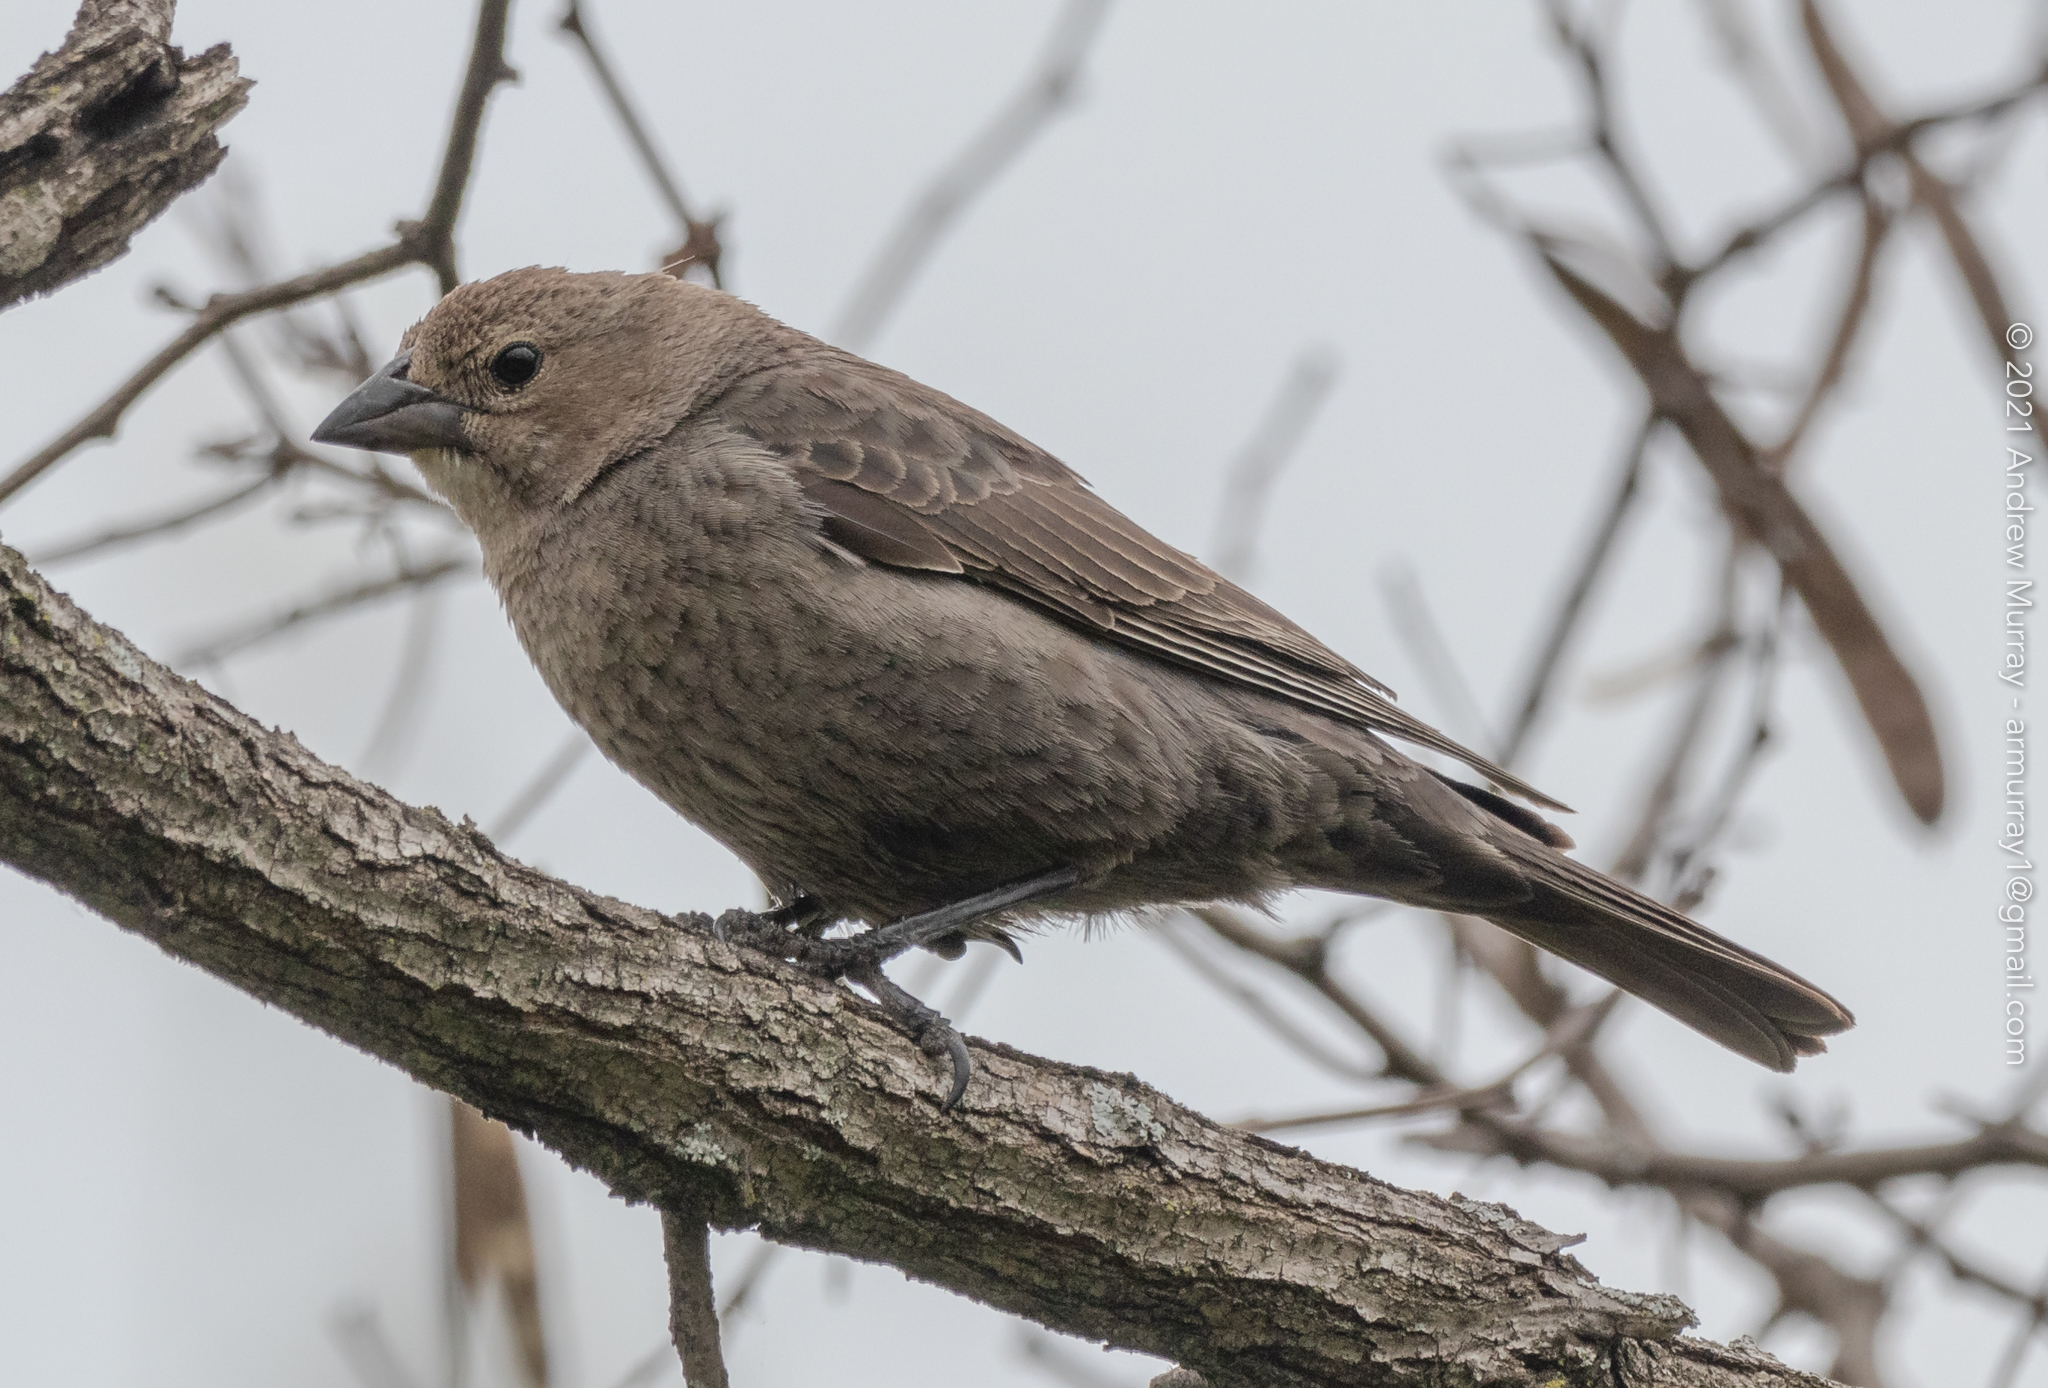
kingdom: Animalia
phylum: Chordata
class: Aves
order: Passeriformes
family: Icteridae
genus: Molothrus
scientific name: Molothrus ater
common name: Brown-headed cowbird
